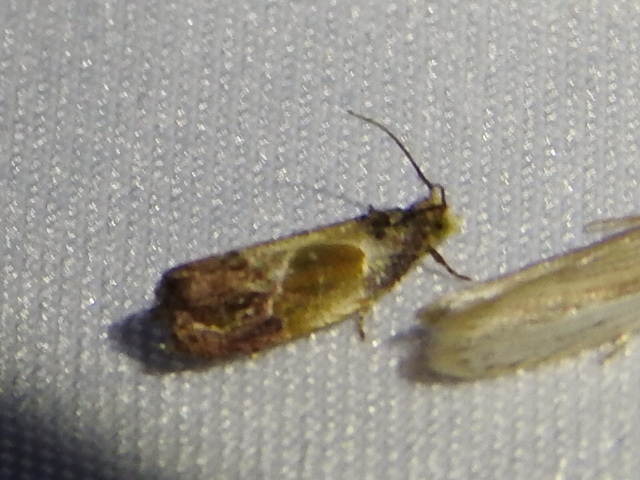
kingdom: Animalia
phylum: Arthropoda
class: Insecta
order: Lepidoptera
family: Tortricidae
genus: Eumarozia
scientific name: Eumarozia malachitana
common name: Sculptured moth
